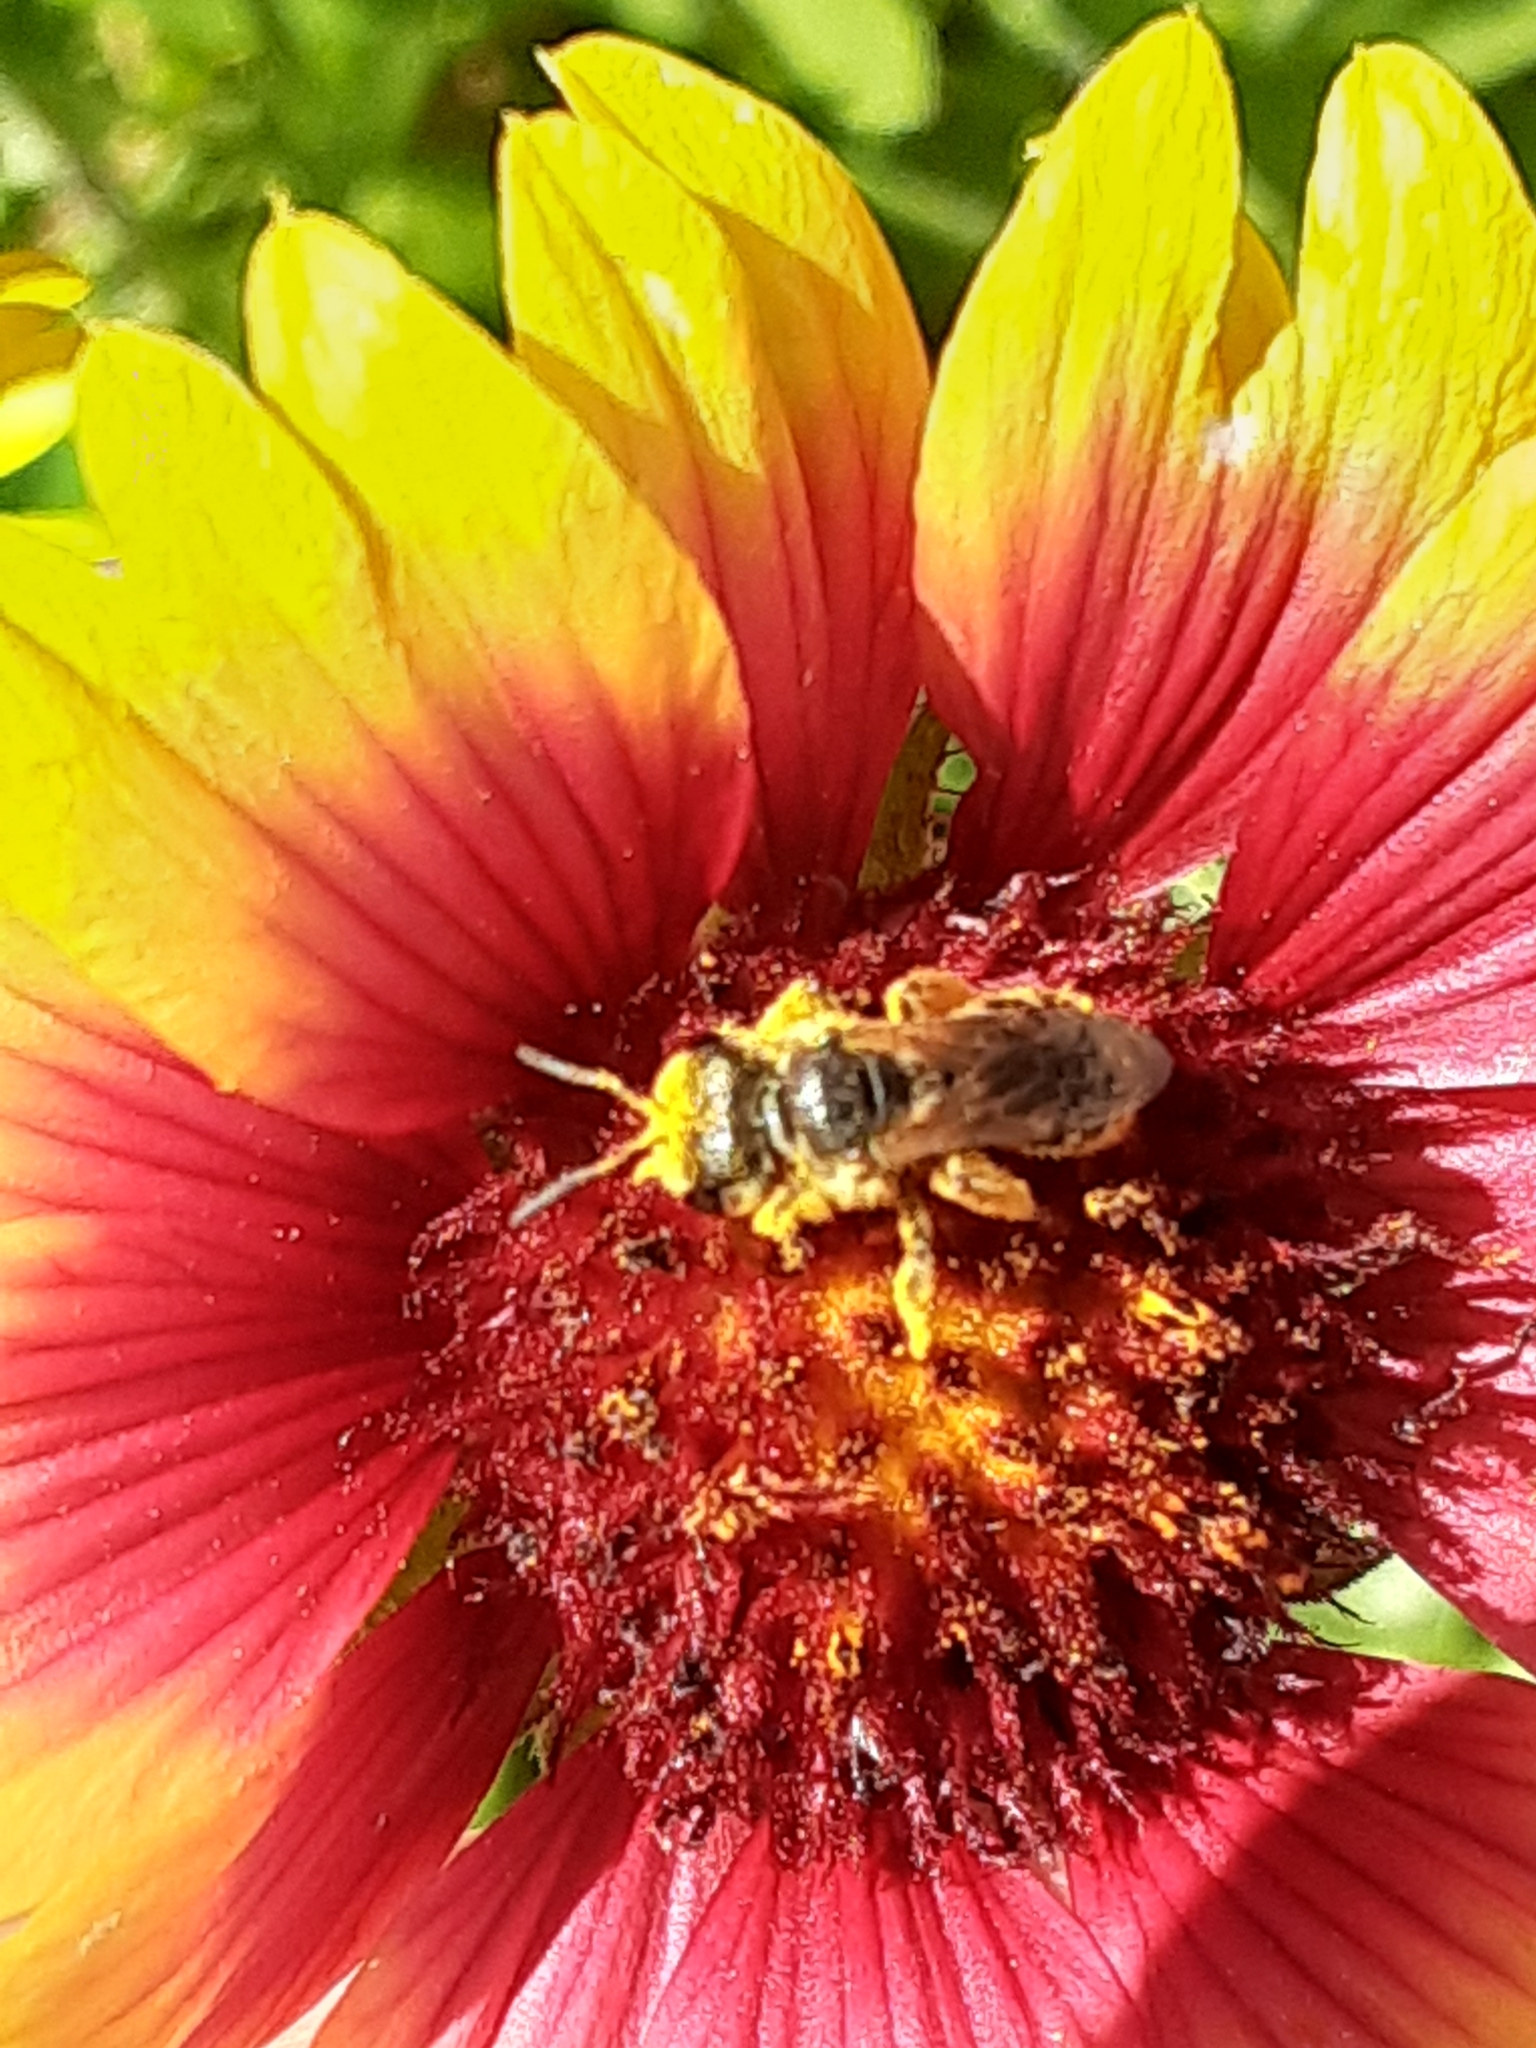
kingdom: Animalia
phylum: Arthropoda
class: Insecta
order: Hymenoptera
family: Halictidae
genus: Halictus
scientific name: Halictus poeyi
